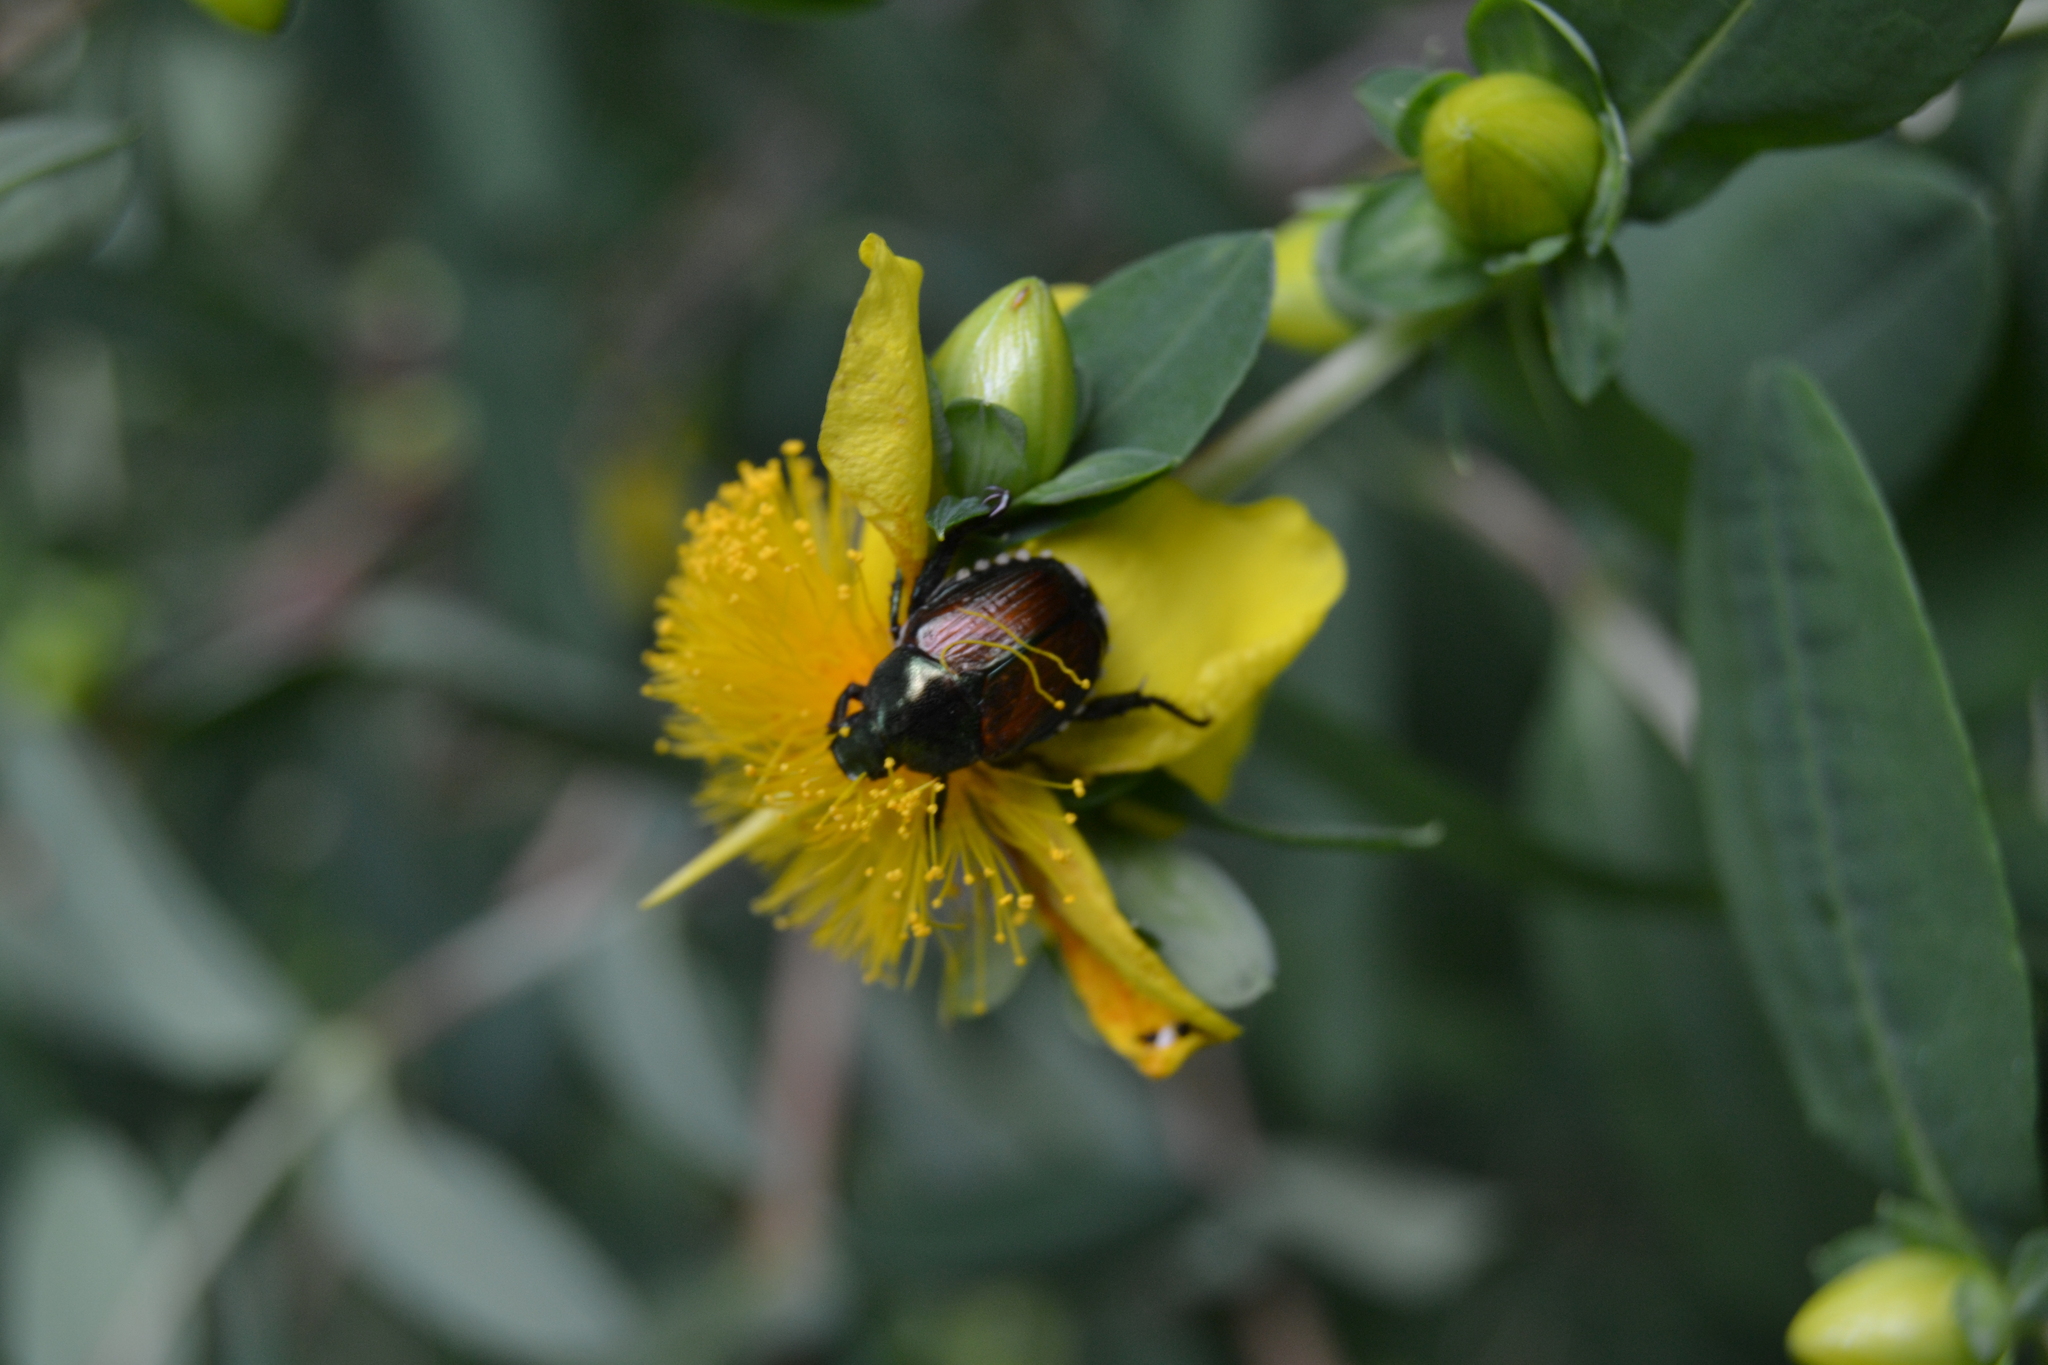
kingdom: Animalia
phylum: Arthropoda
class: Insecta
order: Coleoptera
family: Scarabaeidae
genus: Popillia
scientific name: Popillia japonica
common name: Japanese beetle
